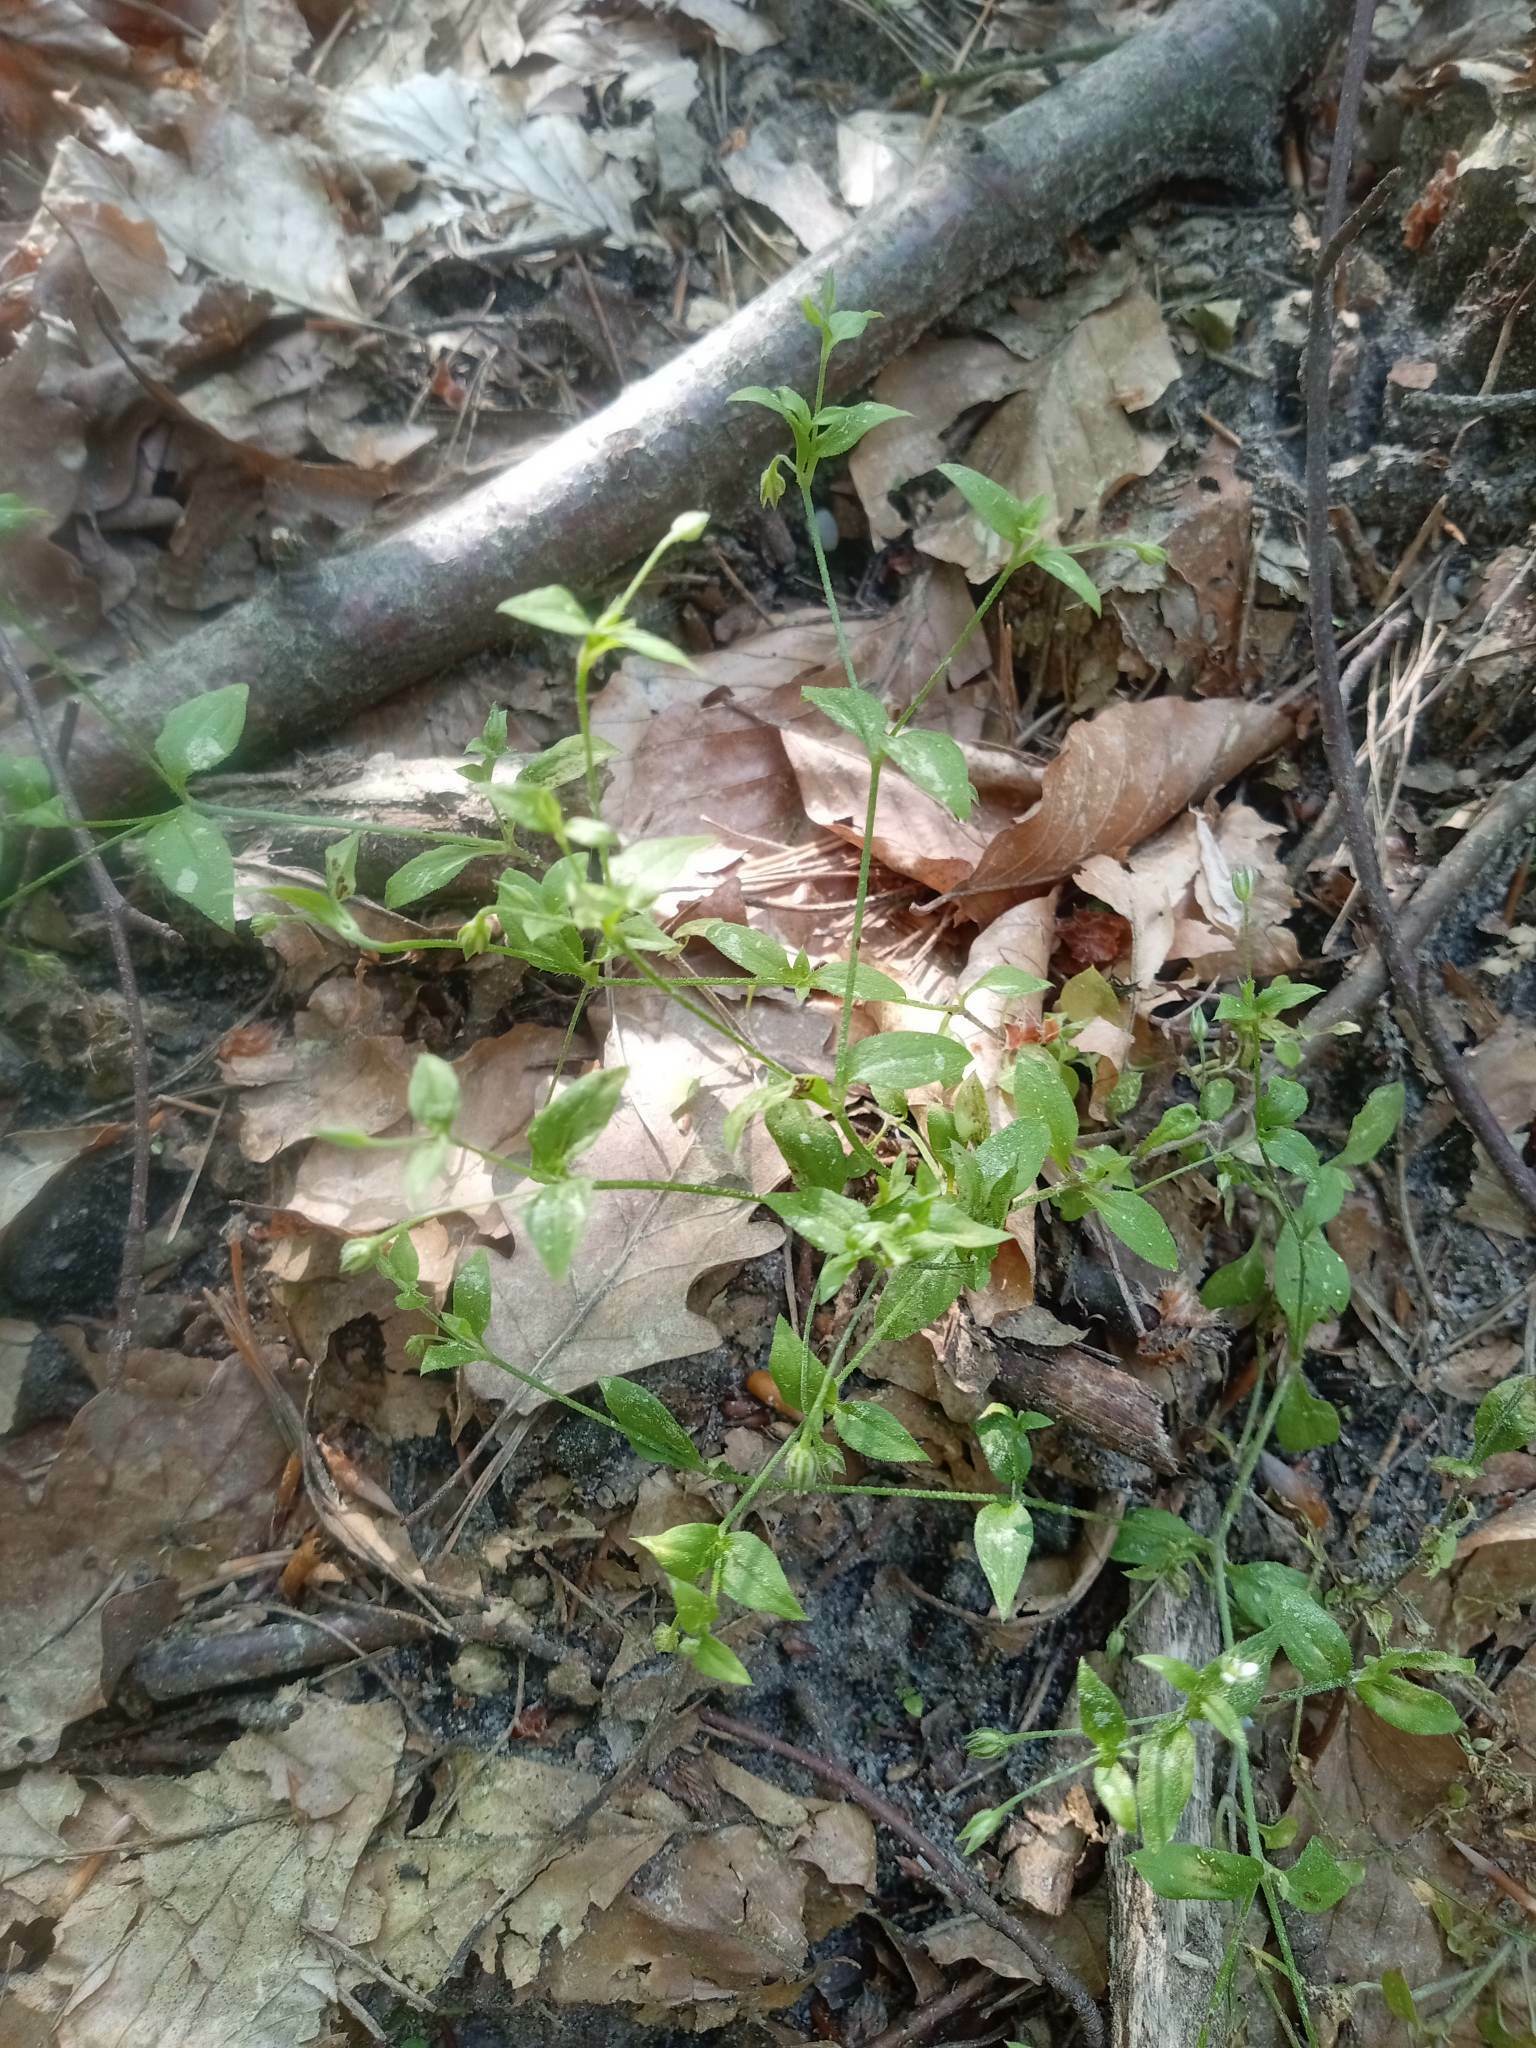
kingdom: Plantae
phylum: Tracheophyta
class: Magnoliopsida
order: Caryophyllales
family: Caryophyllaceae
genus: Moehringia
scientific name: Moehringia trinervia
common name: Three-nerved sandwort
